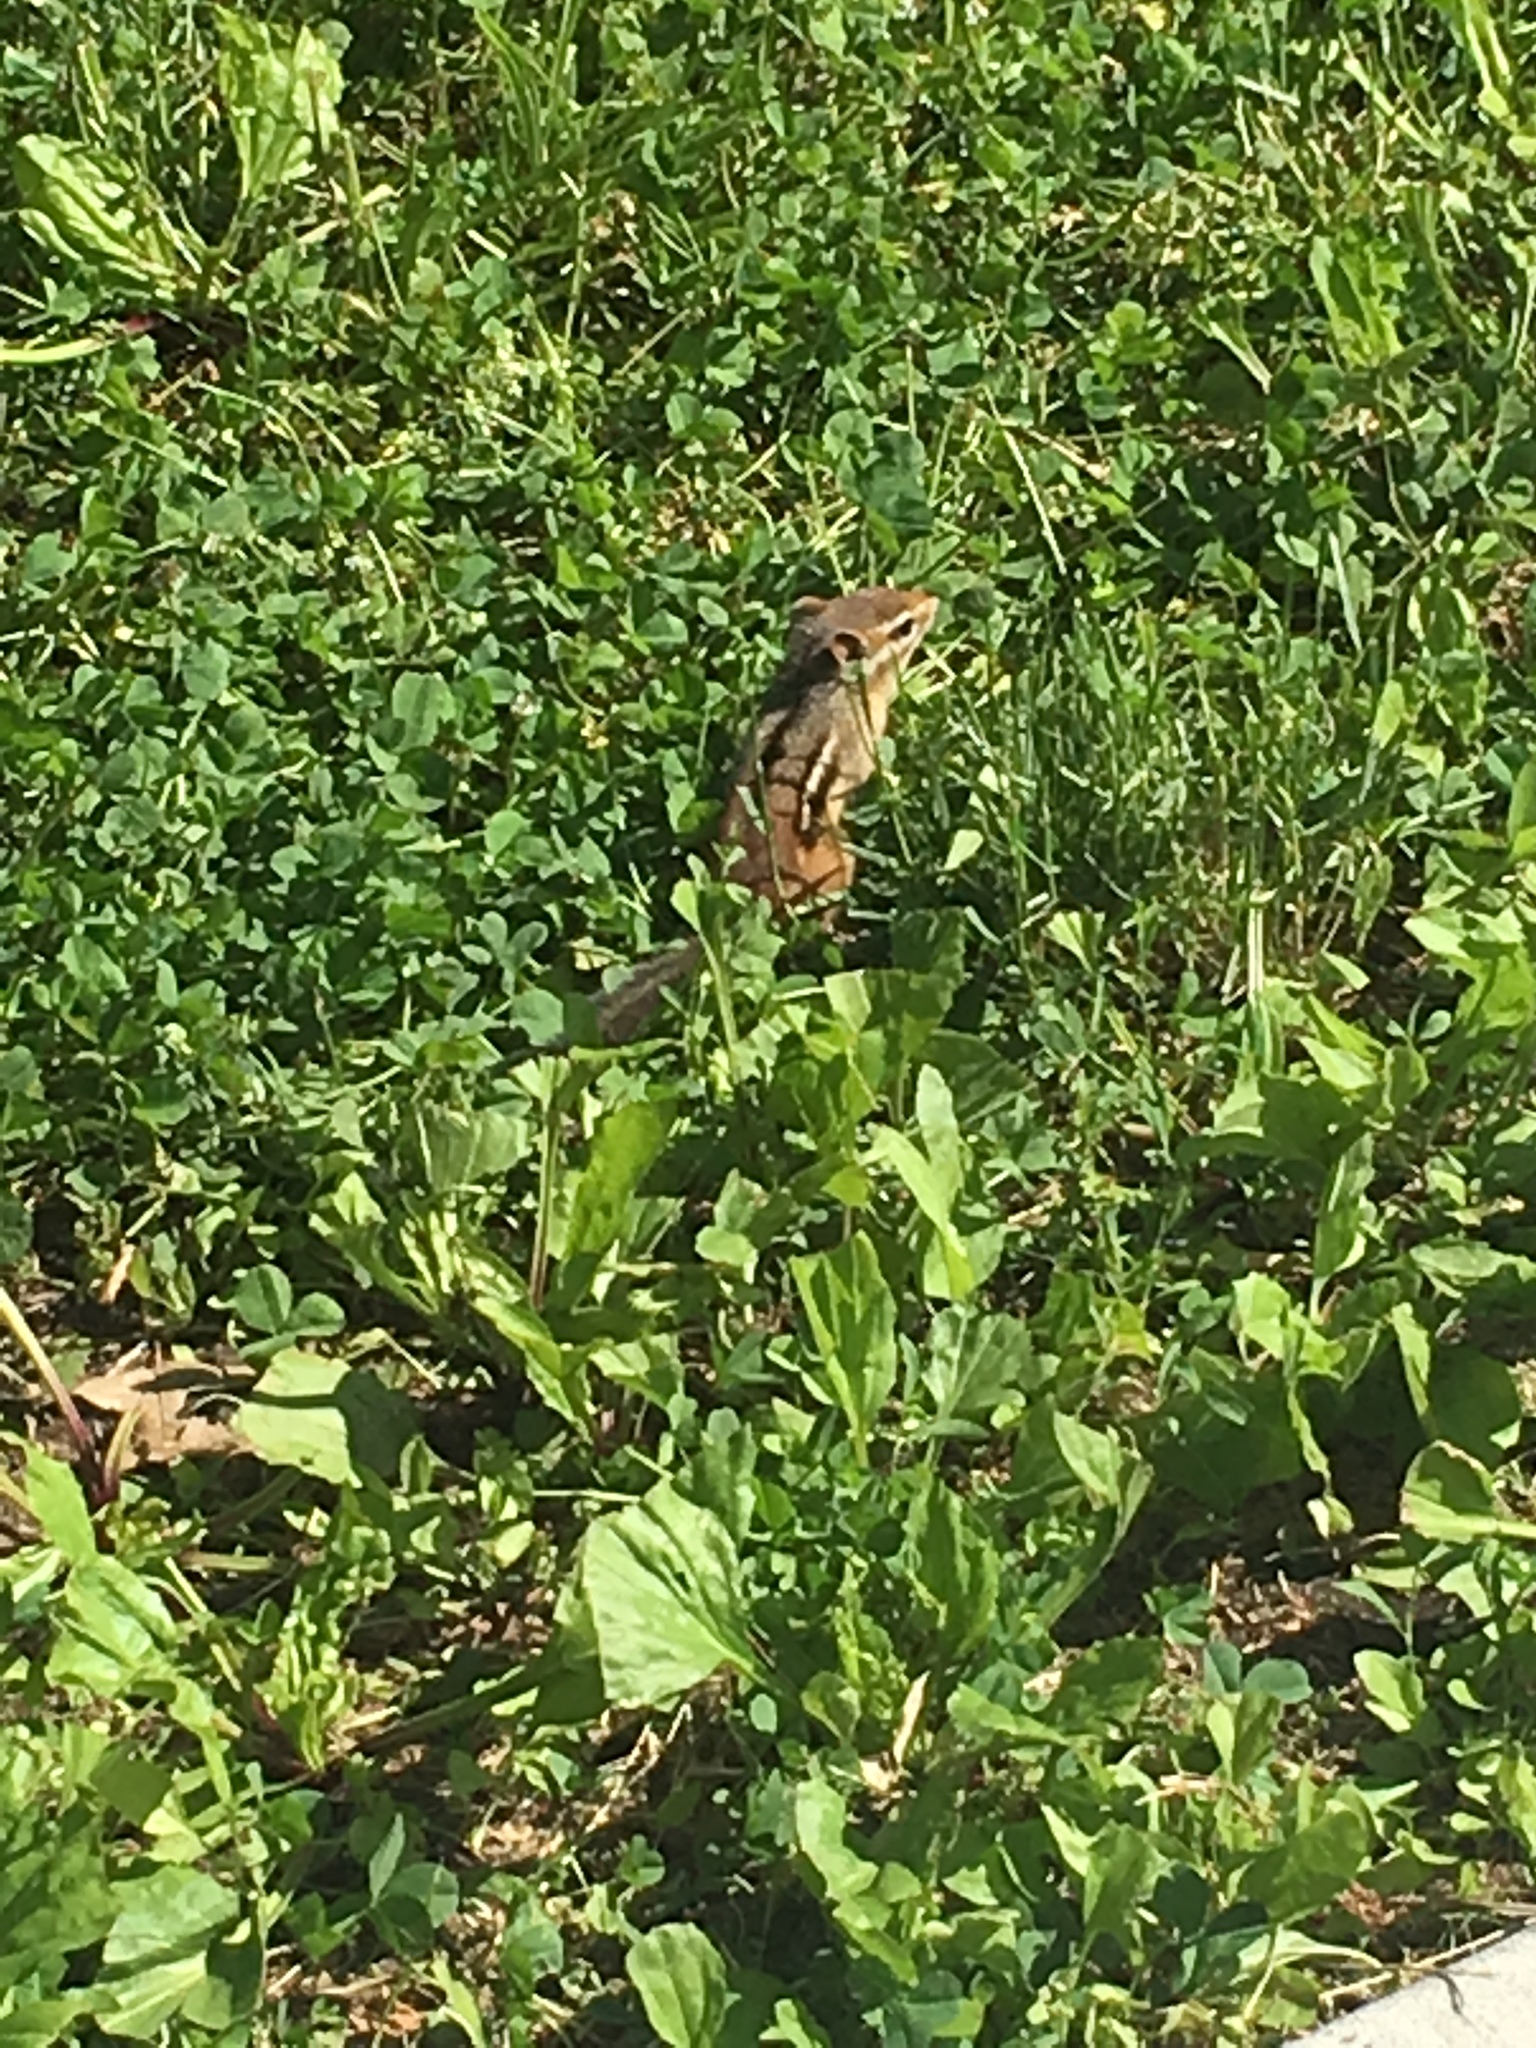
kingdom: Animalia
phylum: Chordata
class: Mammalia
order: Rodentia
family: Sciuridae
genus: Tamias
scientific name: Tamias striatus
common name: Eastern chipmunk
